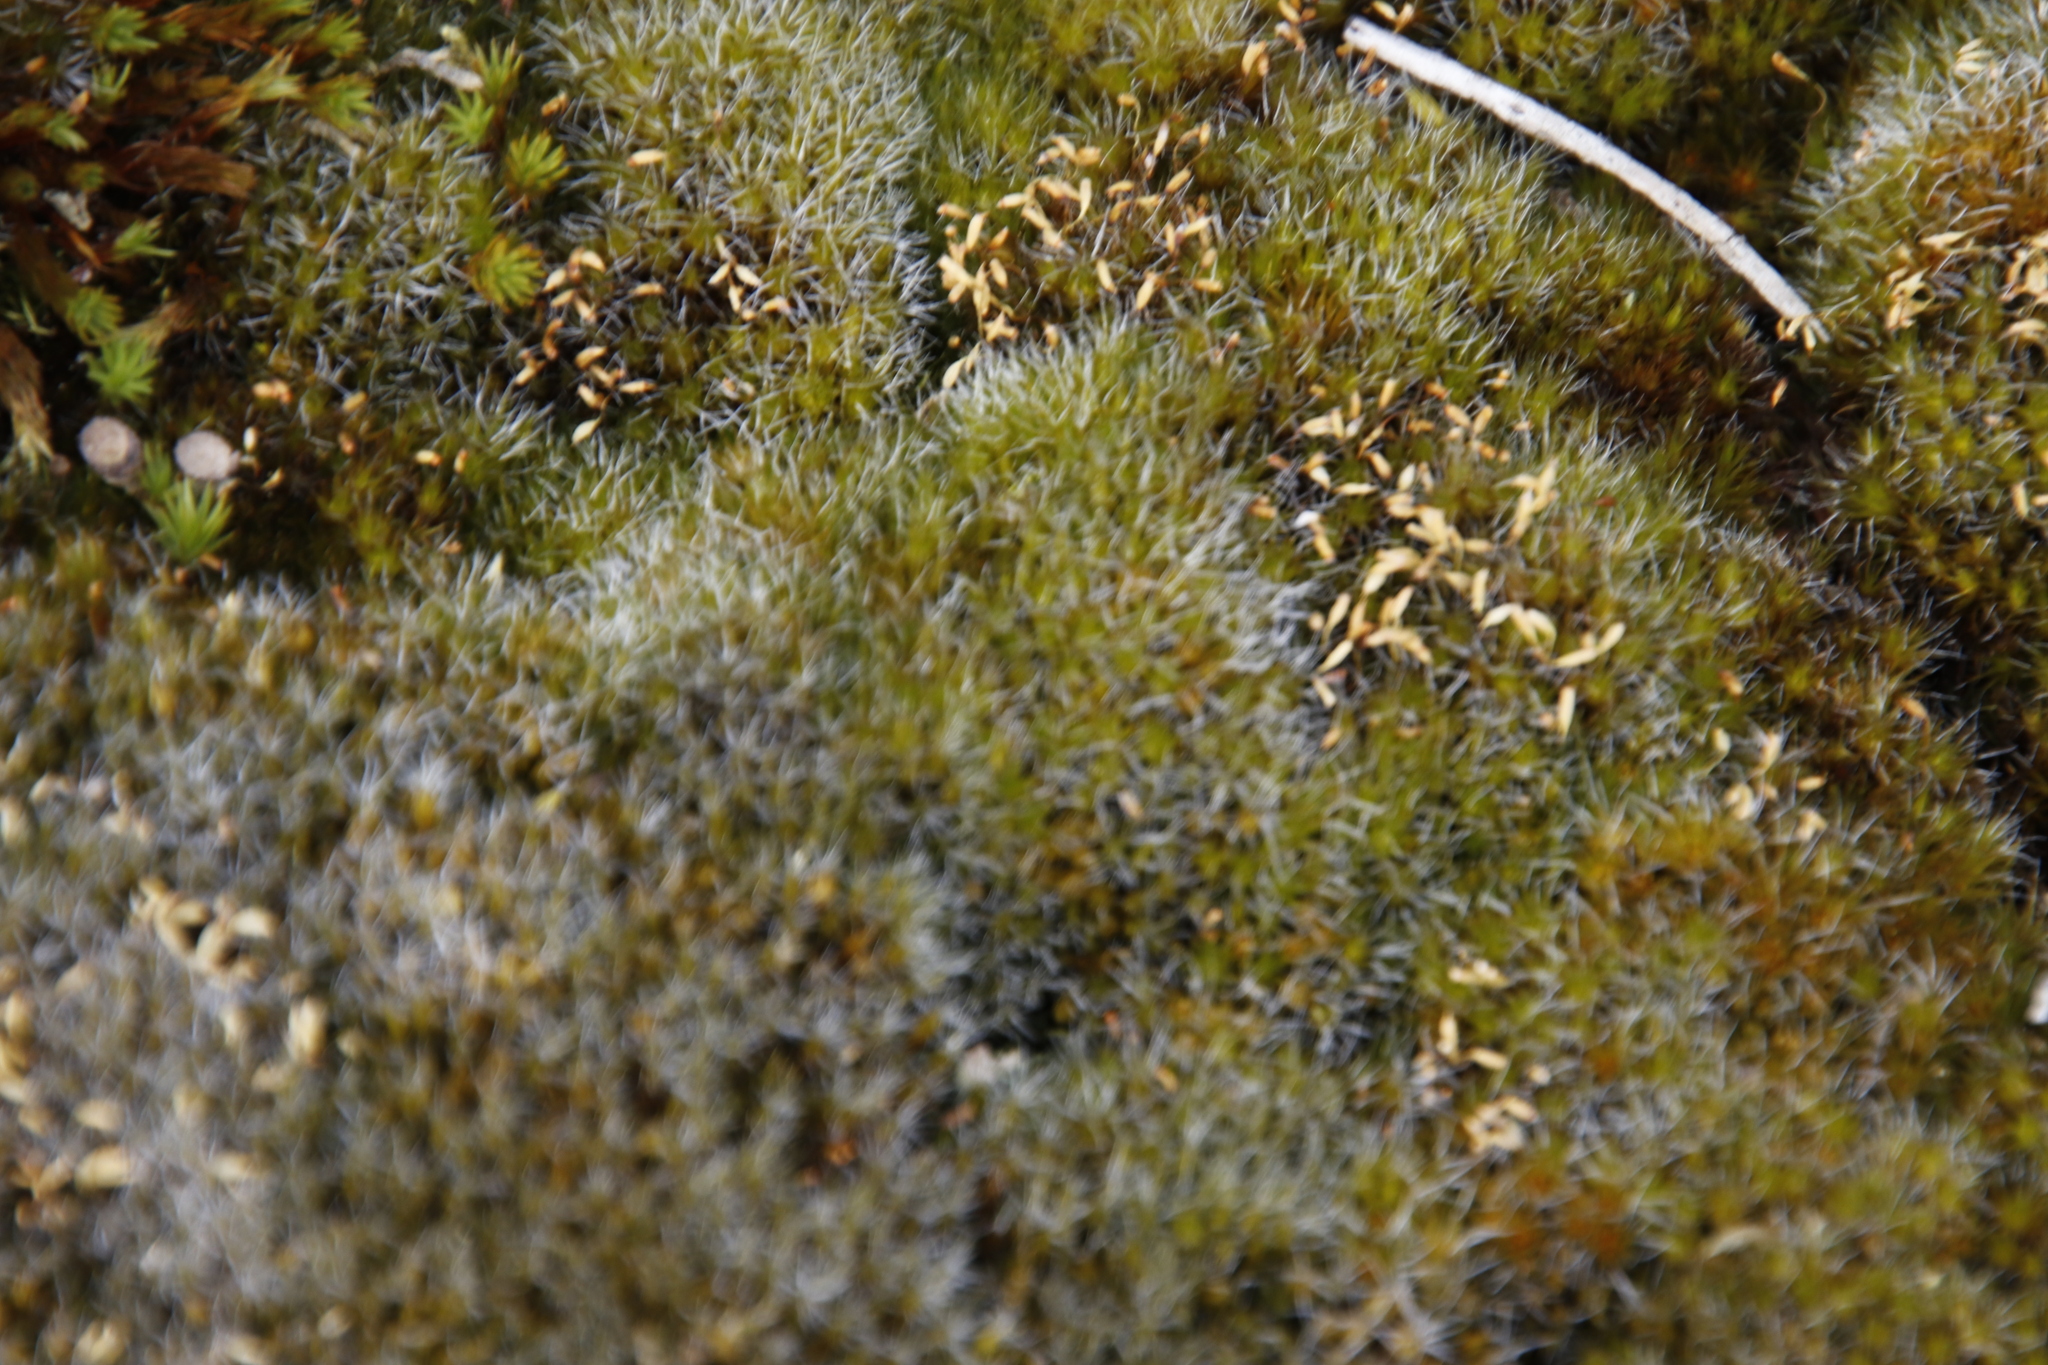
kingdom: Plantae
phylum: Bryophyta
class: Bryopsida
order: Dicranales
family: Leucobryaceae
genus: Campylopus
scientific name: Campylopus introflexus
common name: Heath star moss
